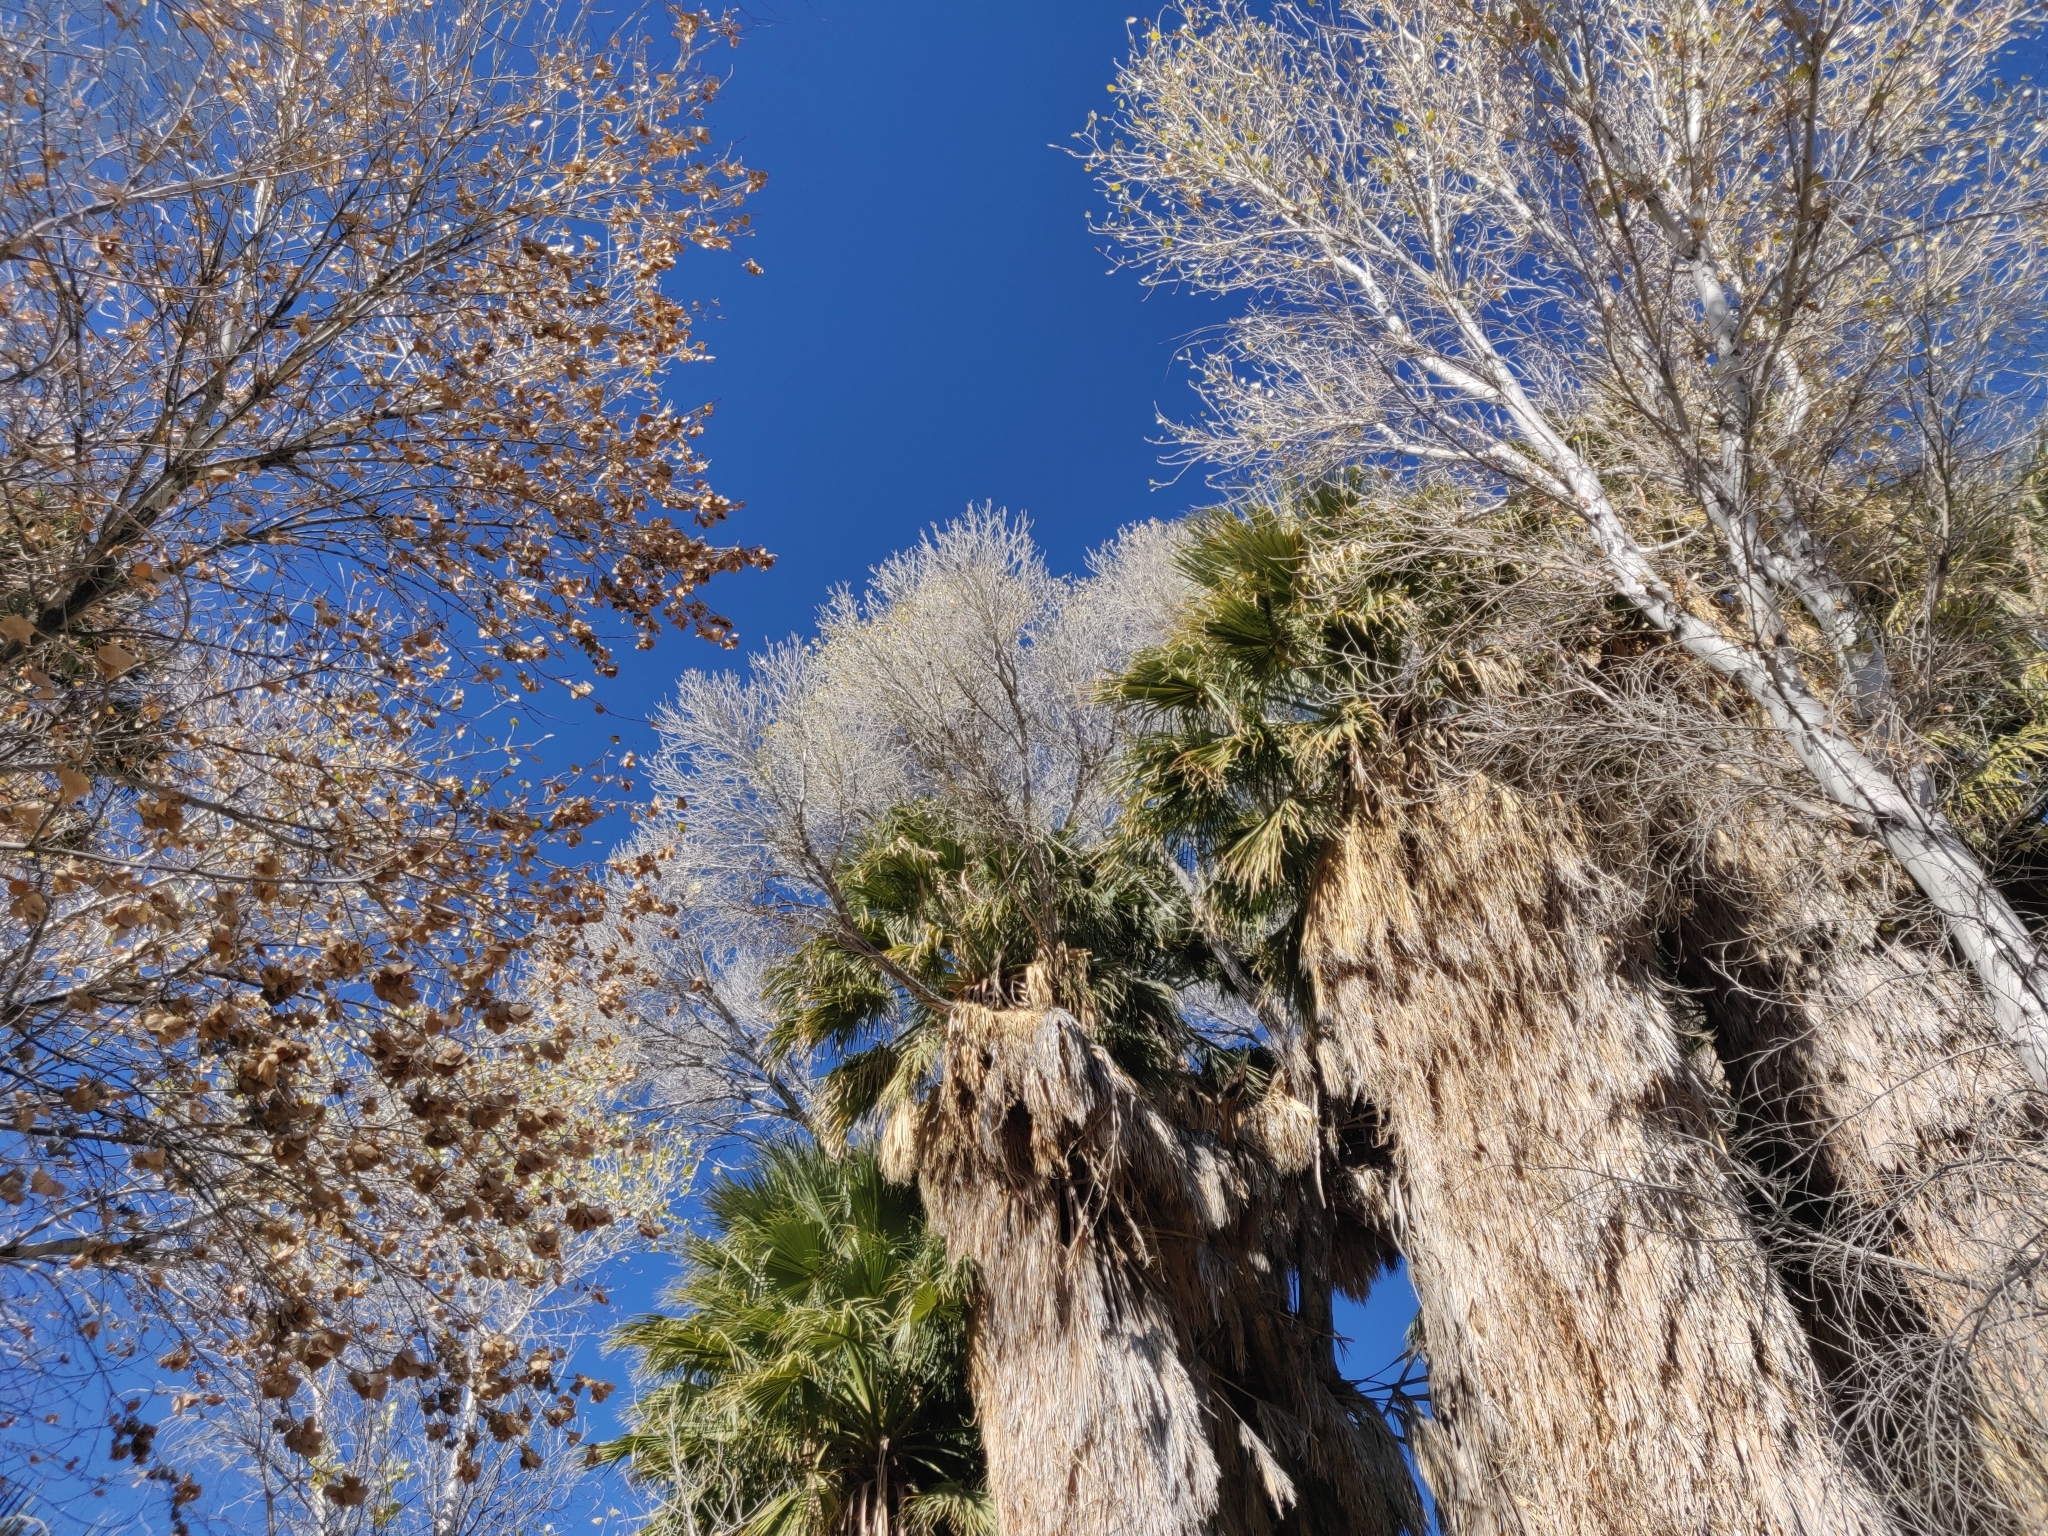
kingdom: Plantae
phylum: Tracheophyta
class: Magnoliopsida
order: Malpighiales
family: Salicaceae
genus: Populus
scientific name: Populus fremontii
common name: Fremont's cottonwood
